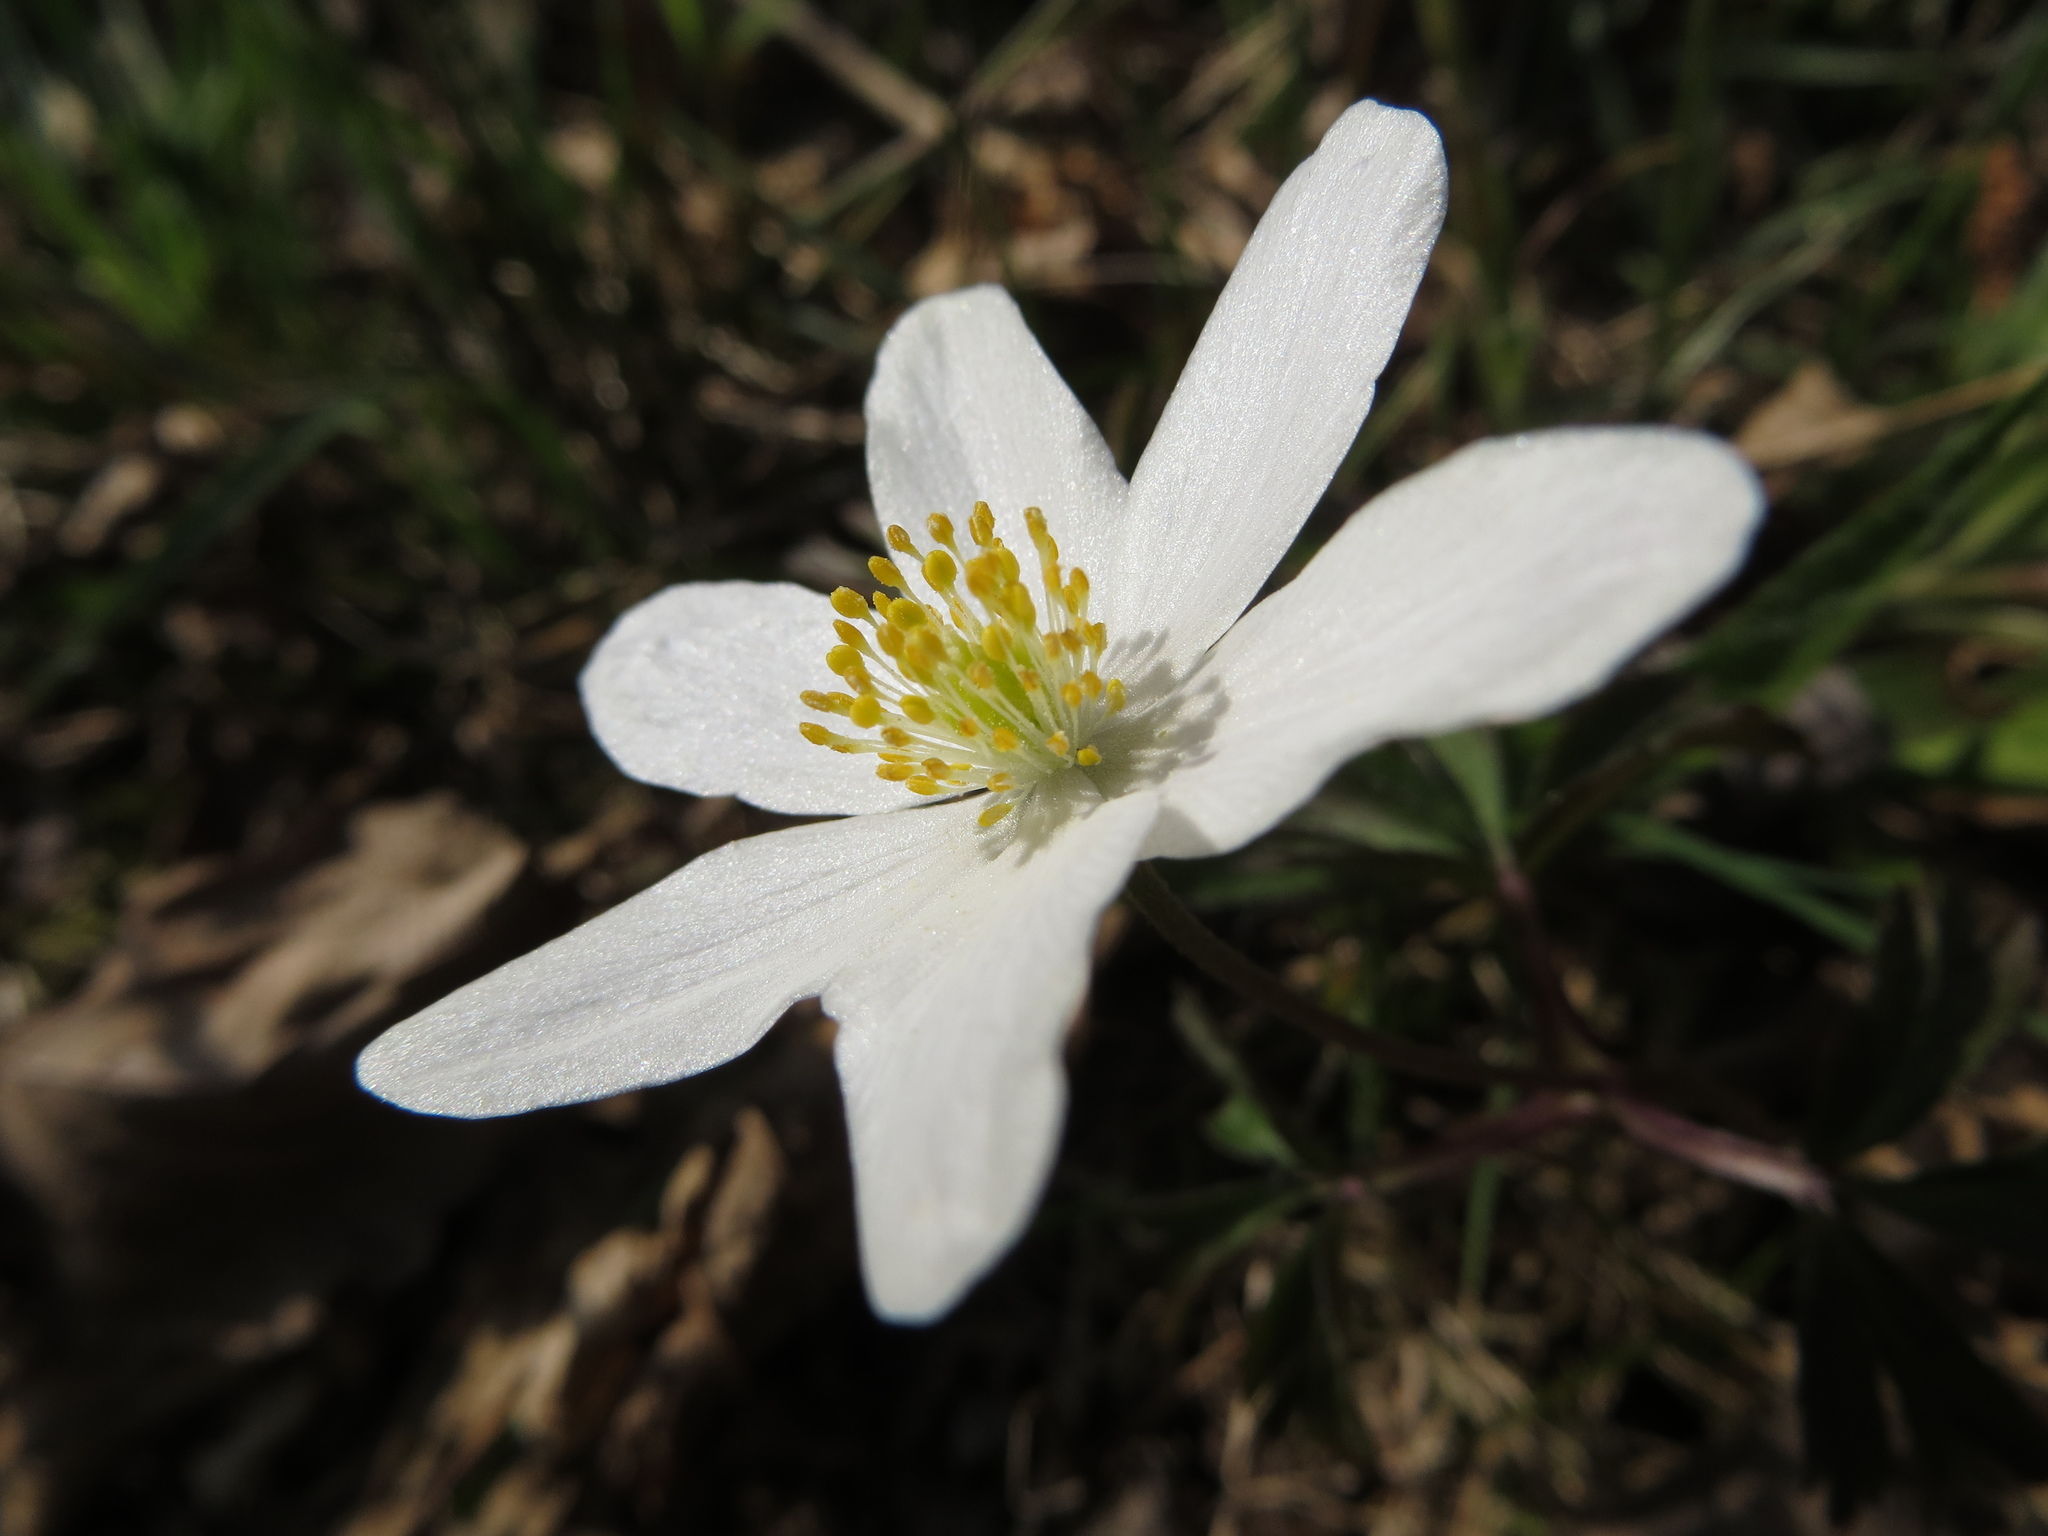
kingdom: Plantae
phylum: Tracheophyta
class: Magnoliopsida
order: Ranunculales
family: Ranunculaceae
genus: Anemone
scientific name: Anemone nemorosa
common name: Wood anemone
